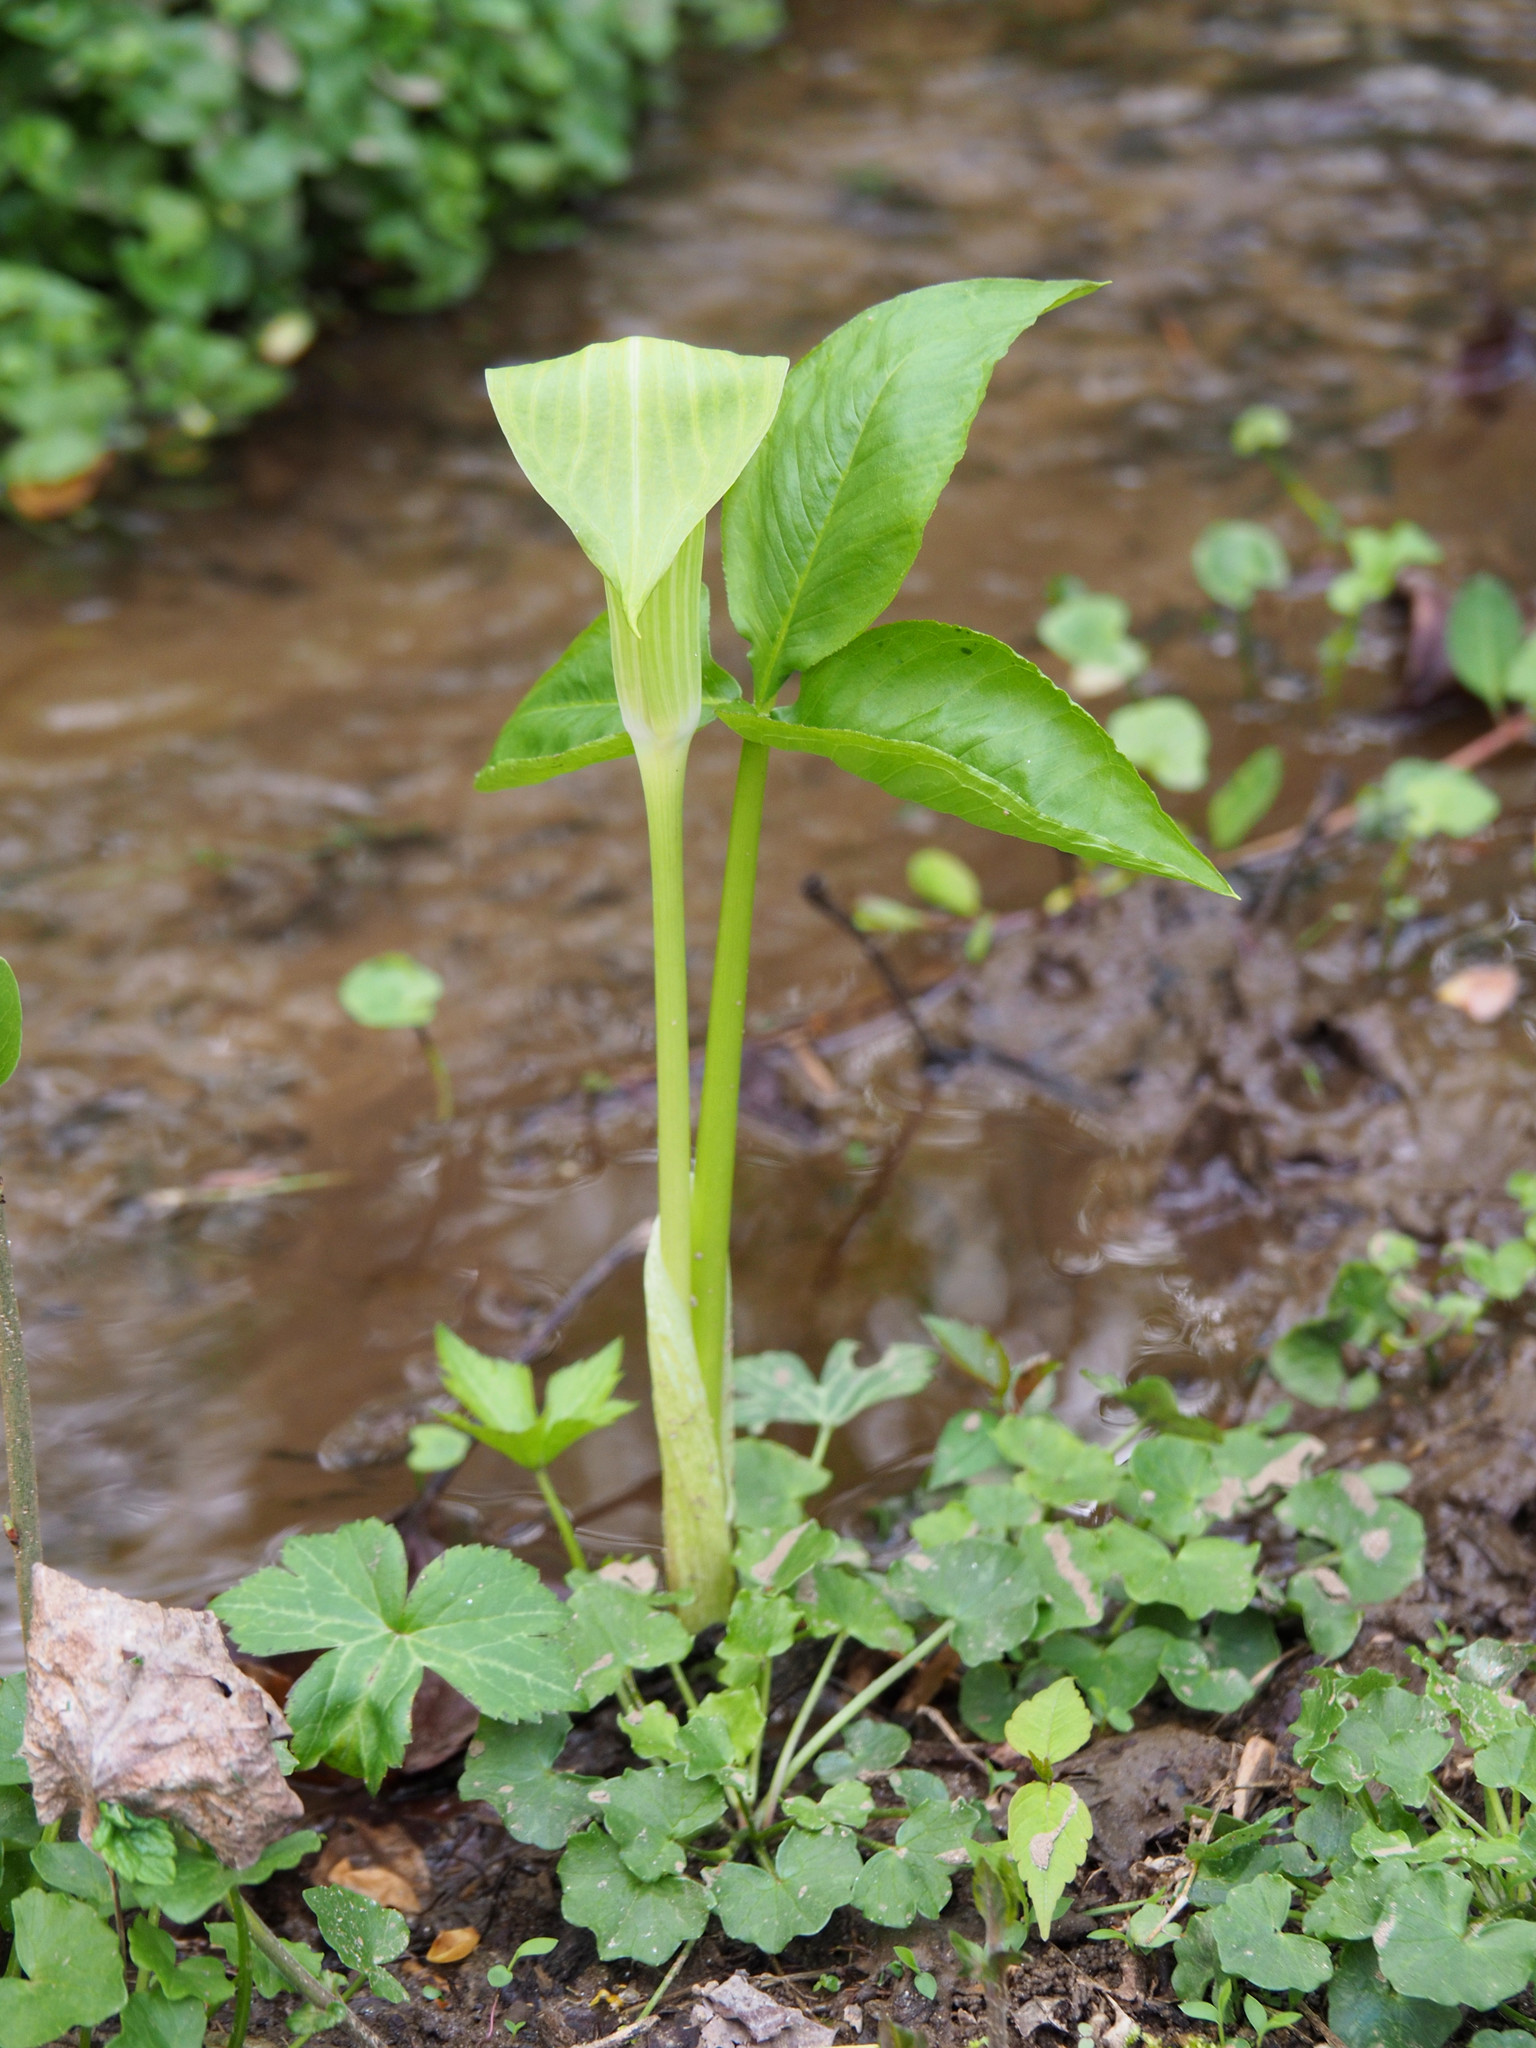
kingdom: Plantae
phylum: Tracheophyta
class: Liliopsida
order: Alismatales
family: Araceae
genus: Arisaema
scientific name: Arisaema triphyllum
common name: Jack-in-the-pulpit
